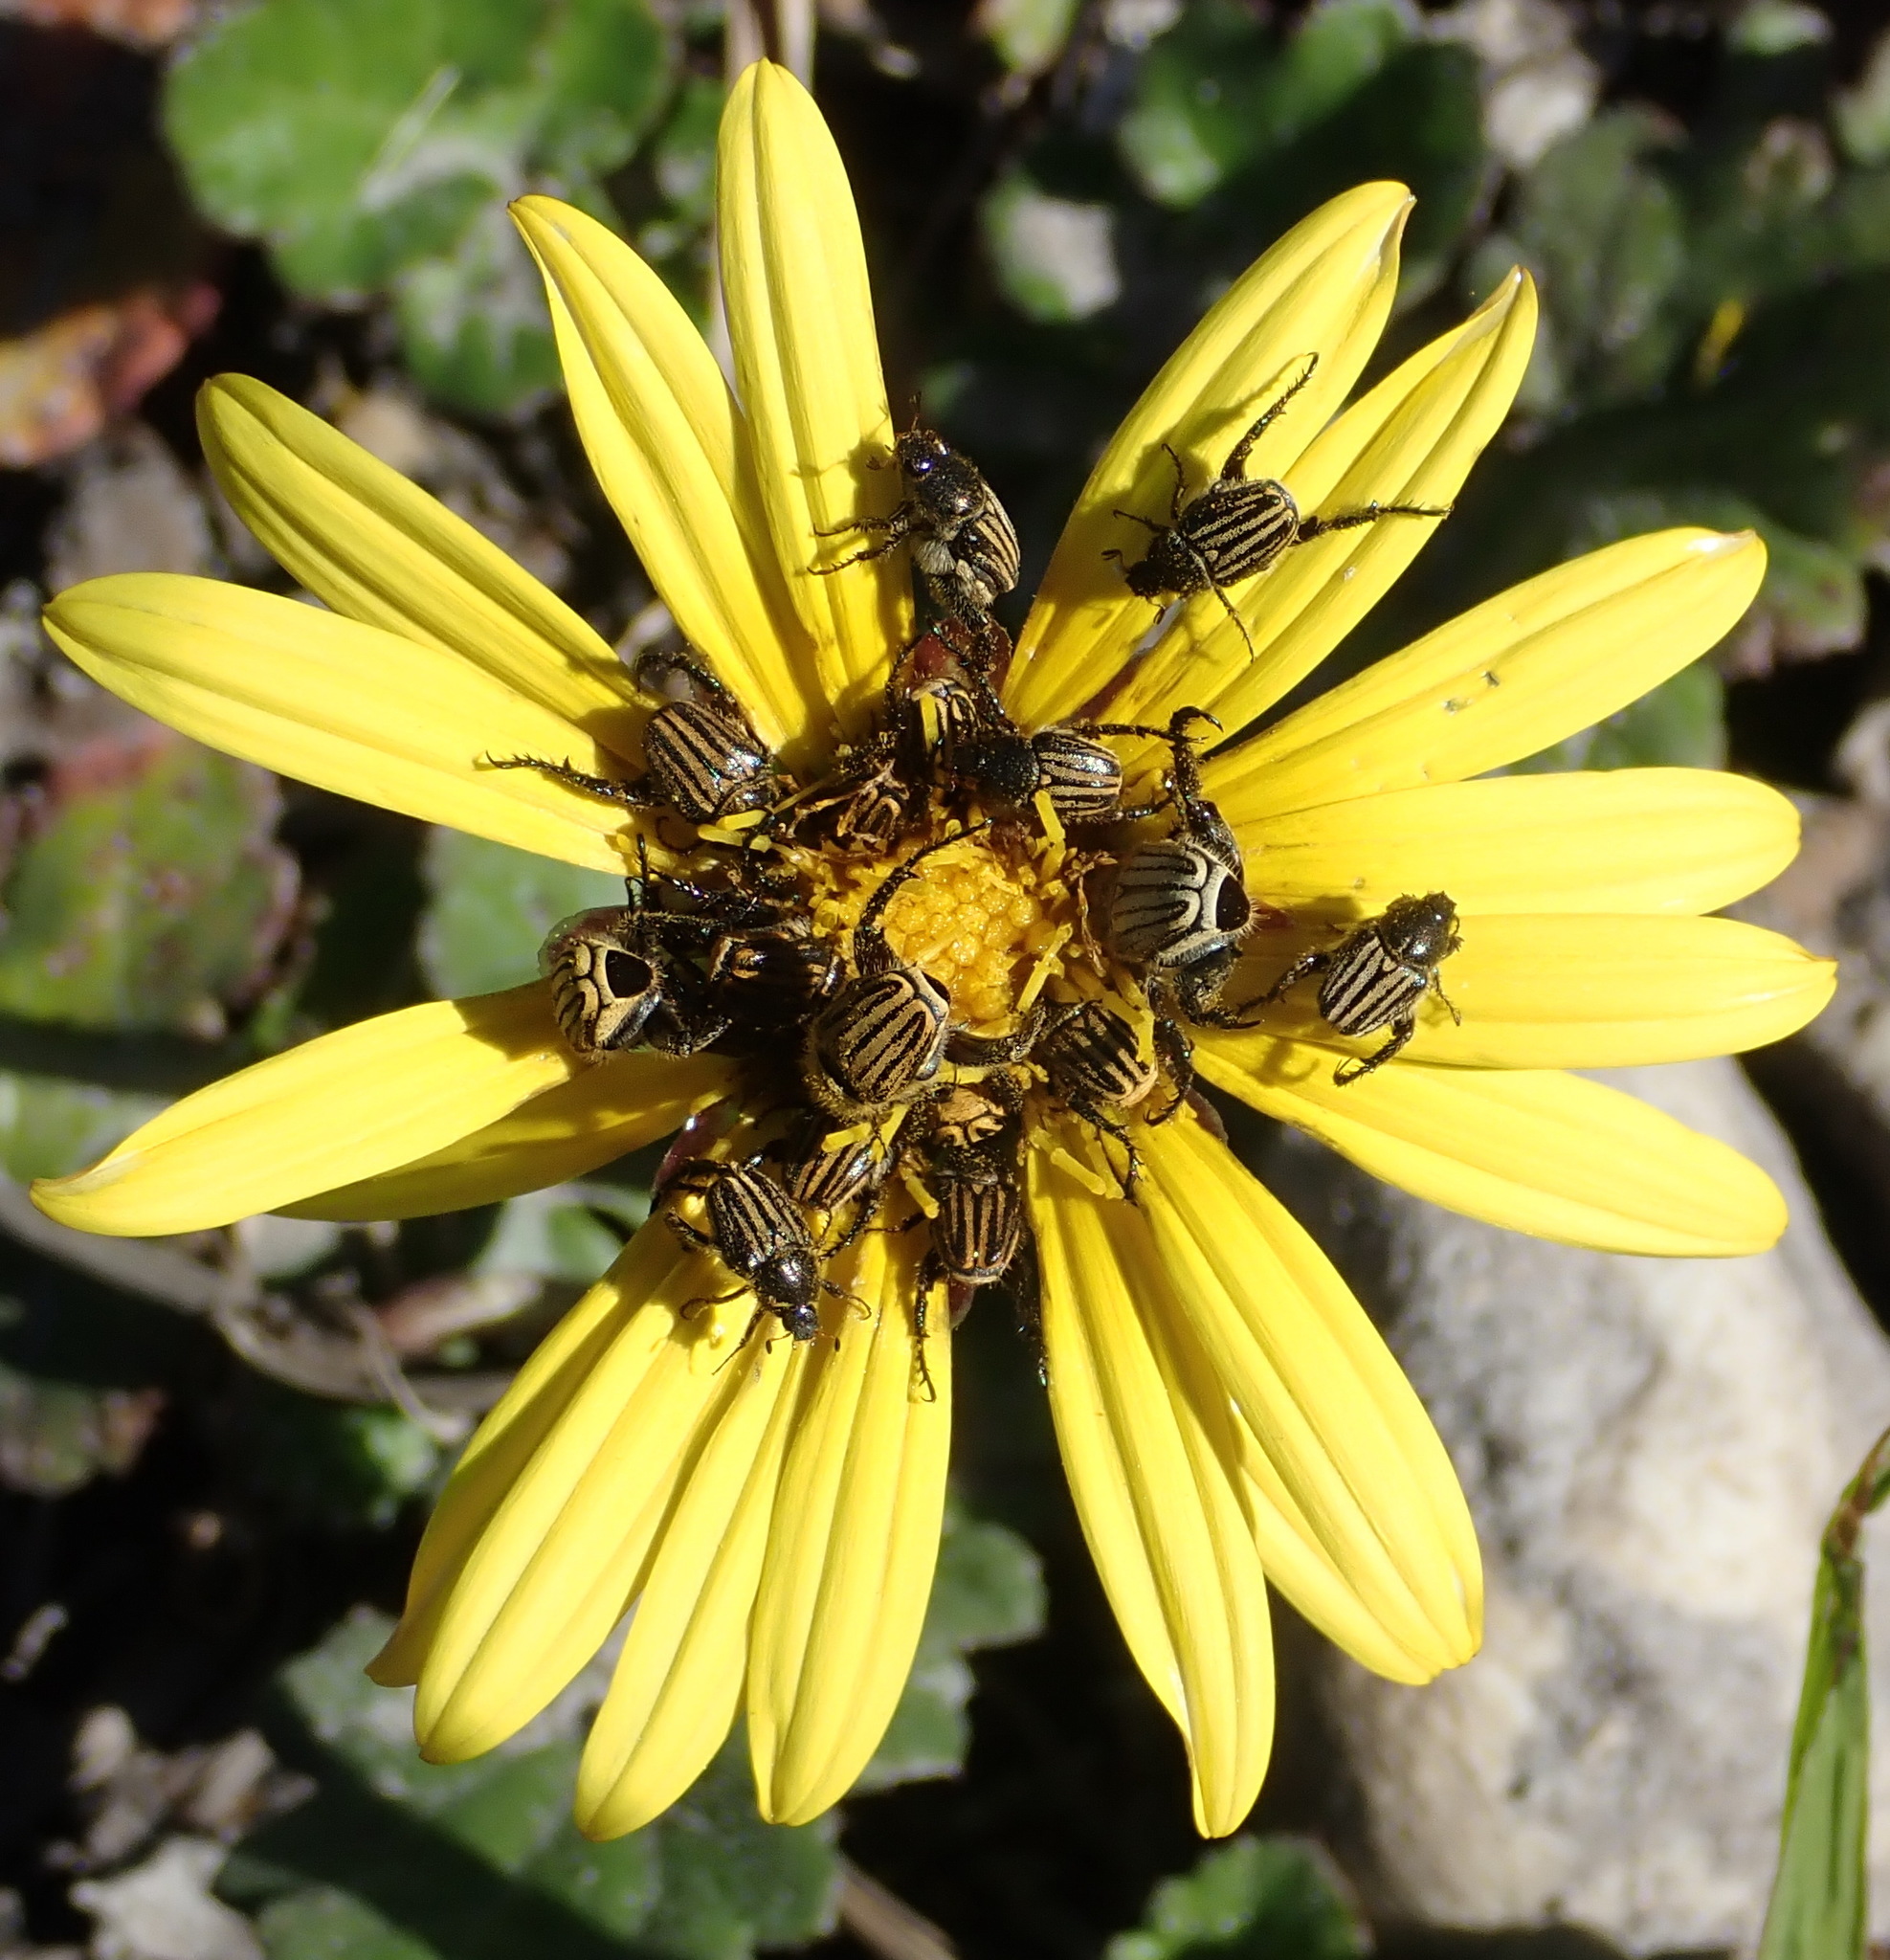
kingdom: Plantae
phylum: Tracheophyta
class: Magnoliopsida
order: Asterales
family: Asteraceae
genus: Arctotheca
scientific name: Arctotheca prostrata
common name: Capeweed
